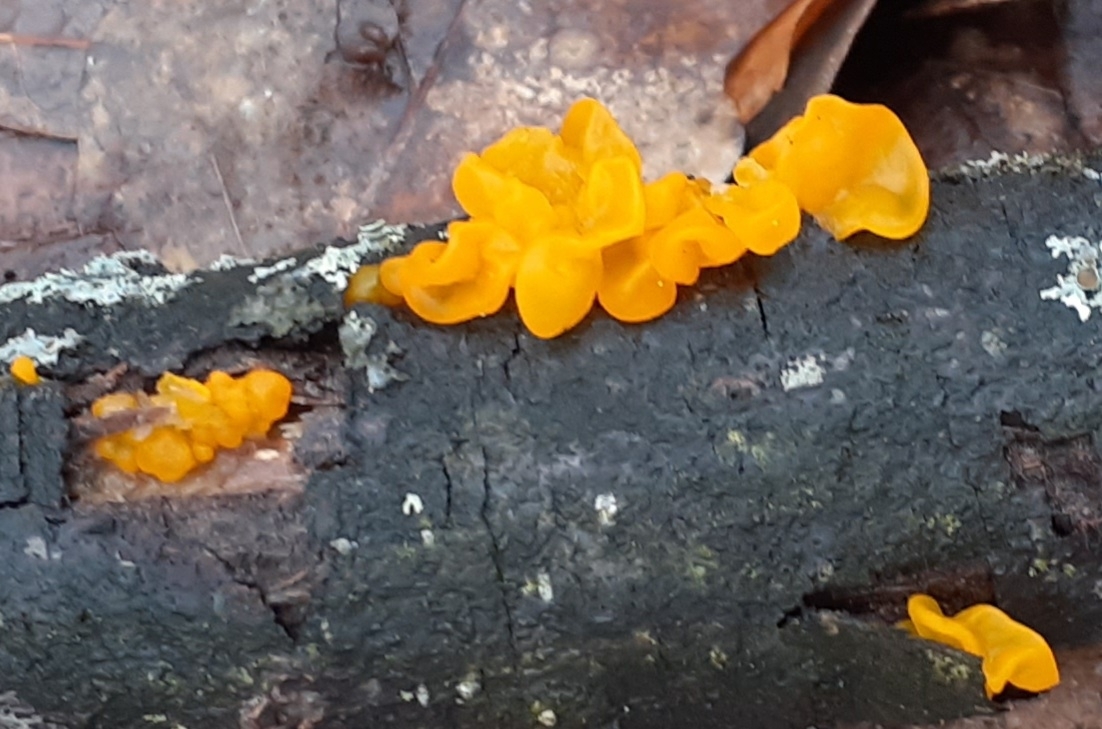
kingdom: Fungi
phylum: Basidiomycota
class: Tremellomycetes
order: Tremellales
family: Tremellaceae
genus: Tremella
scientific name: Tremella mesenterica
